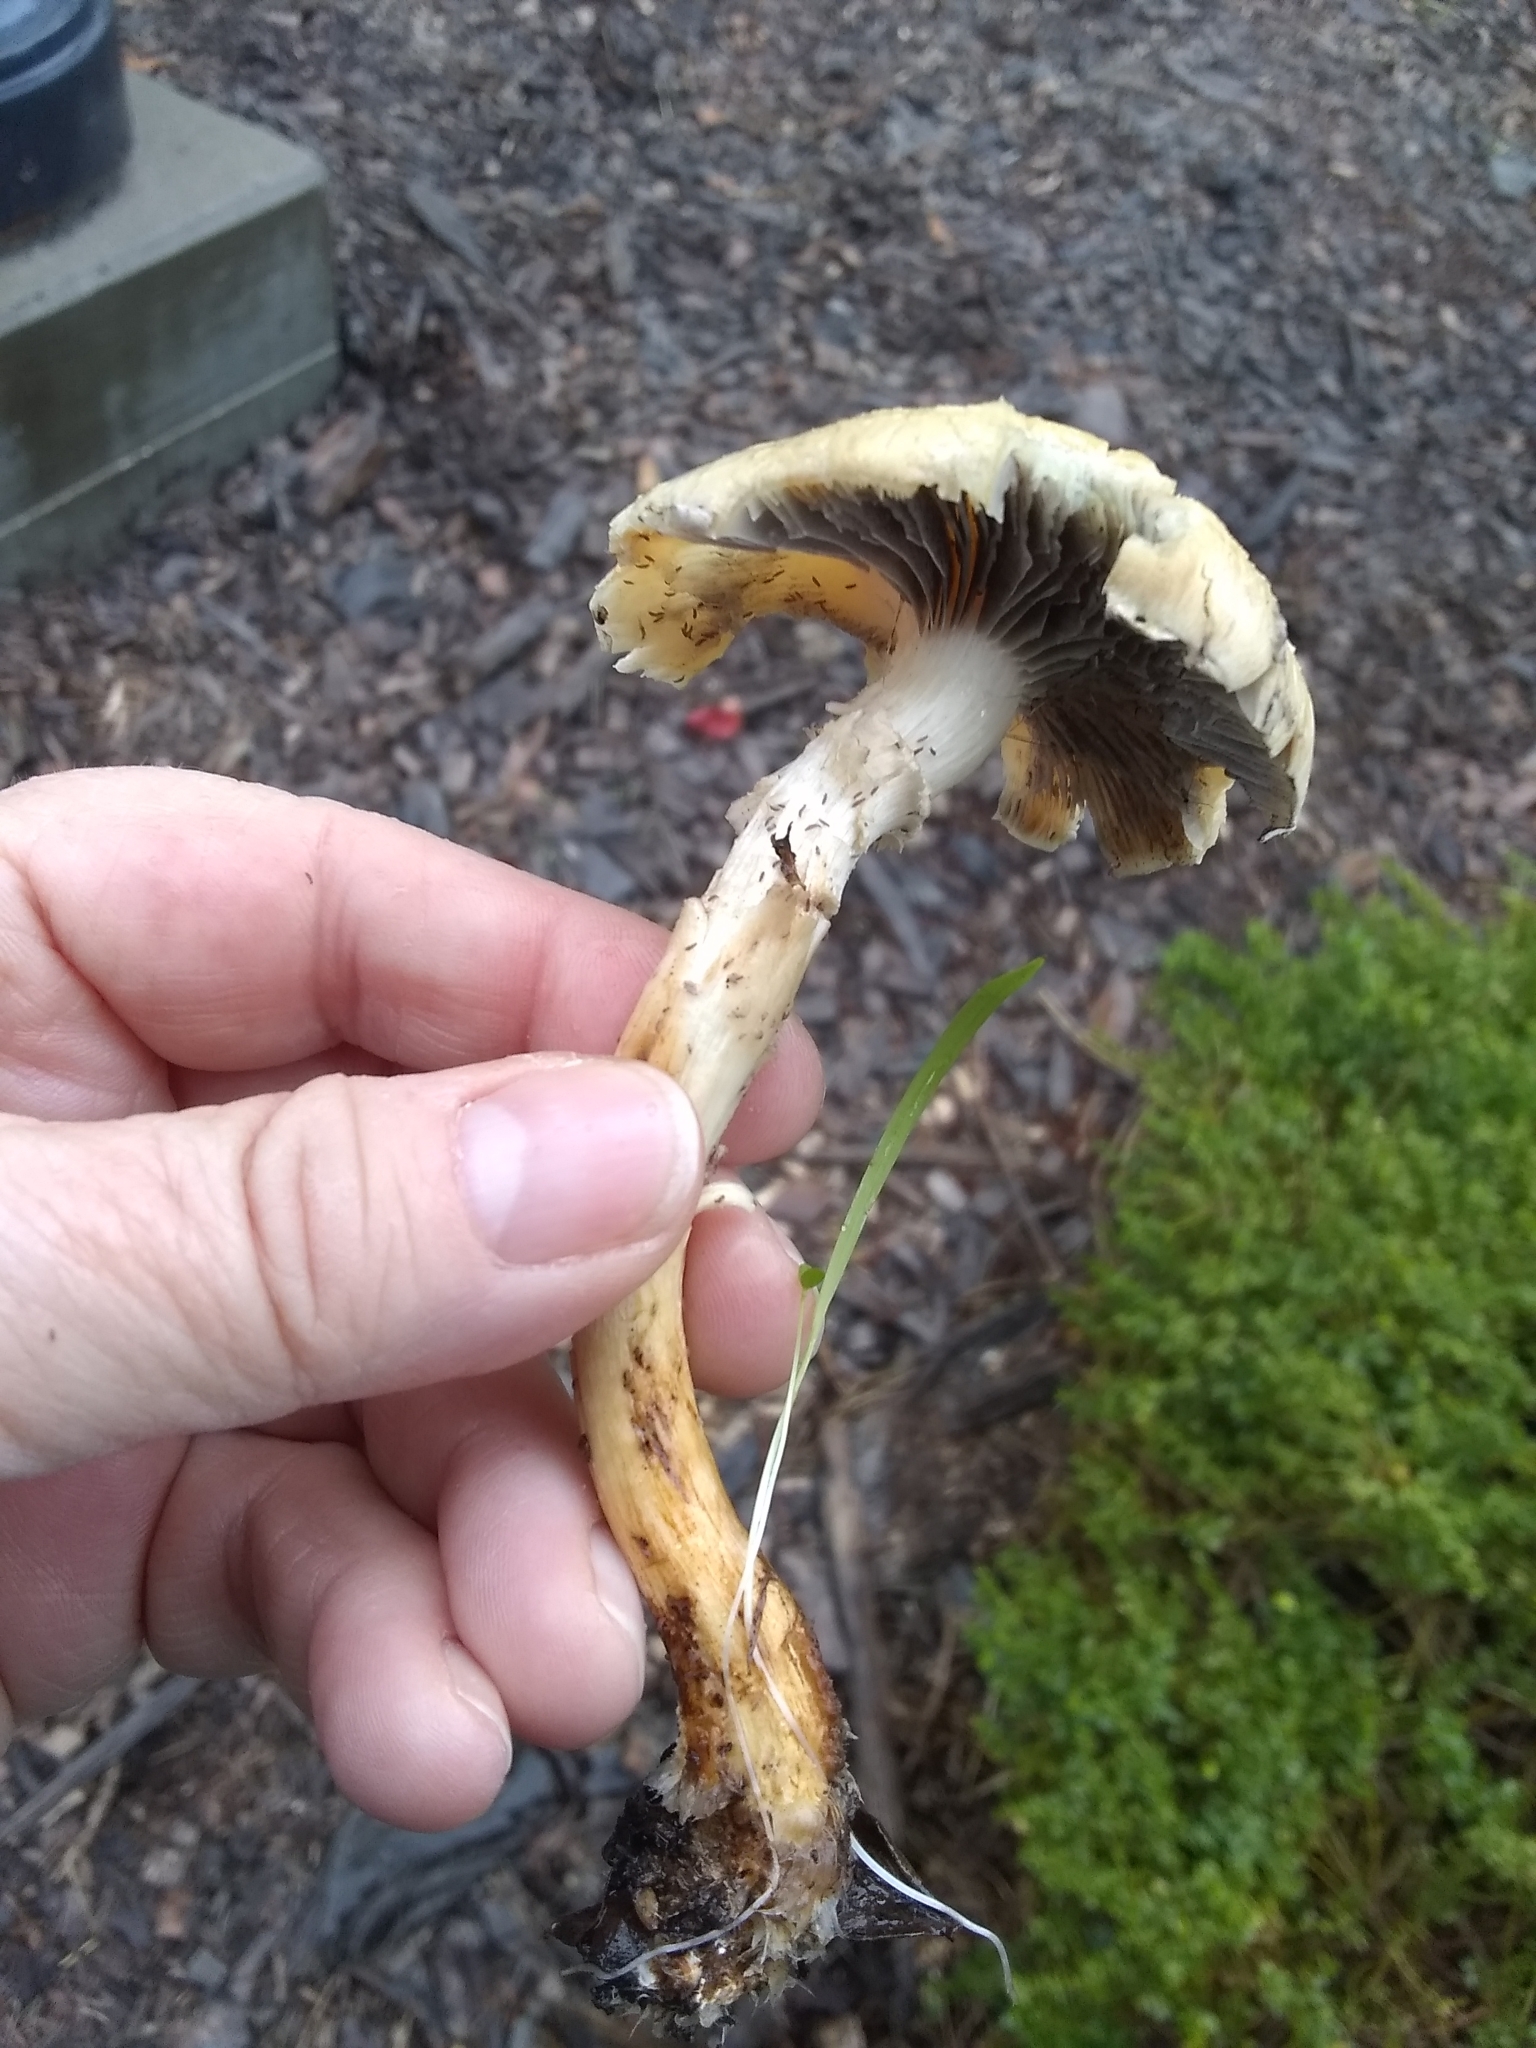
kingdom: Fungi
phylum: Basidiomycota
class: Agaricomycetes
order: Agaricales
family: Strophariaceae
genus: Leratiomyces
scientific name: Leratiomyces percevalii
